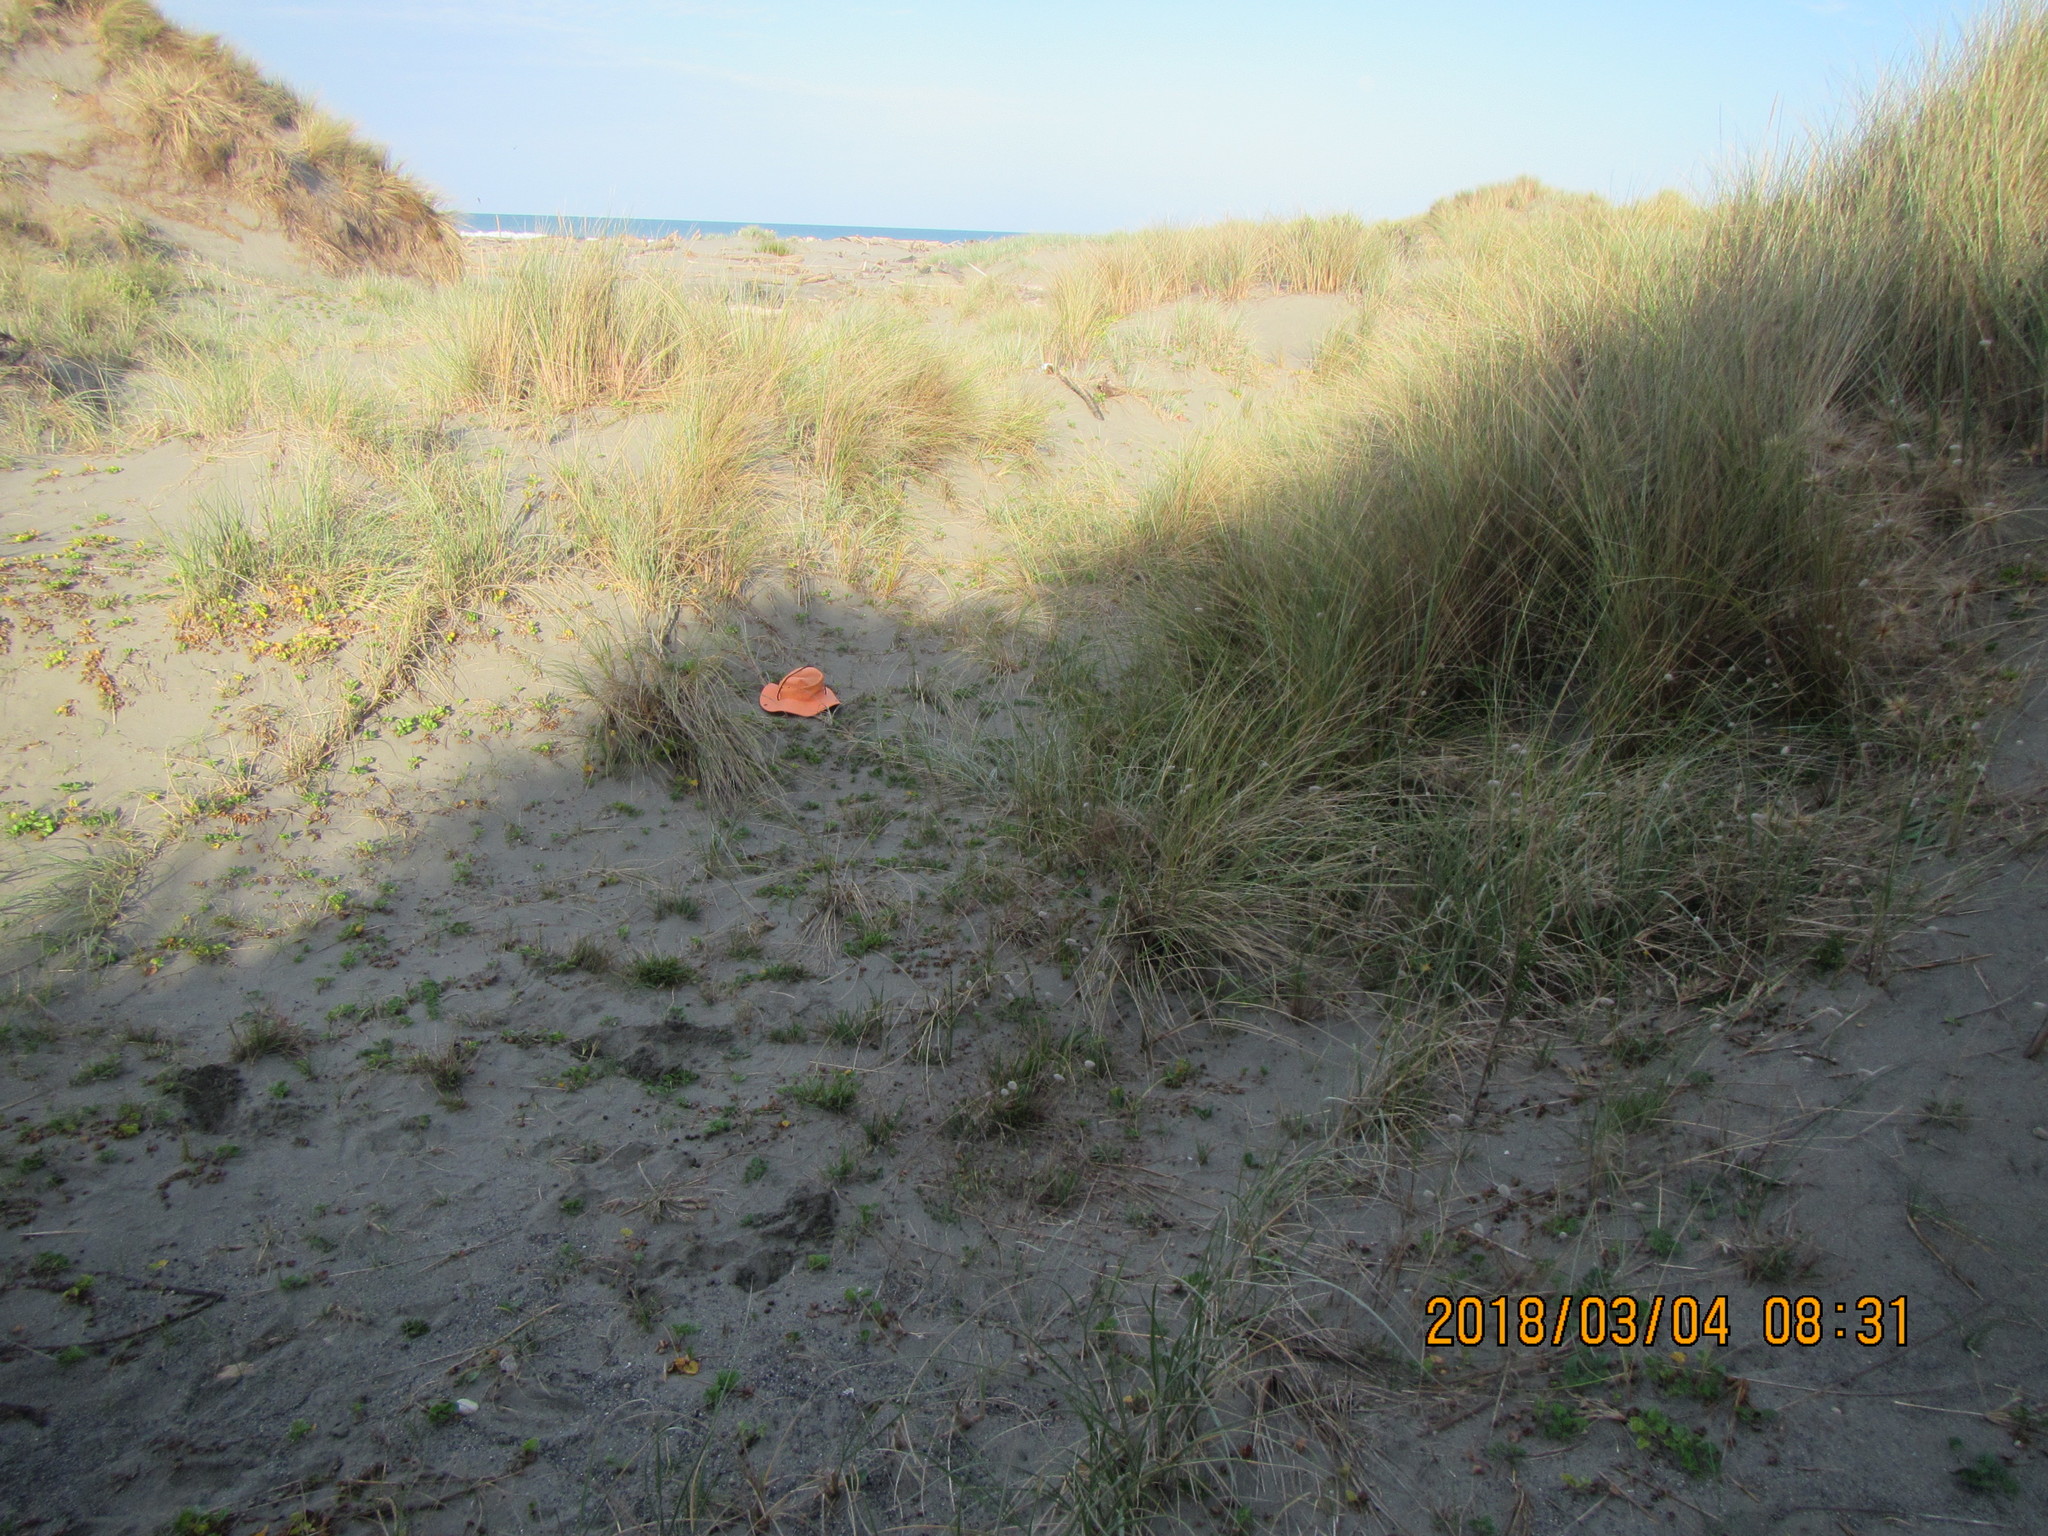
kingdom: Plantae
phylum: Tracheophyta
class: Magnoliopsida
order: Solanales
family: Convolvulaceae
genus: Calystegia
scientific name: Calystegia soldanella
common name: Sea bindweed
